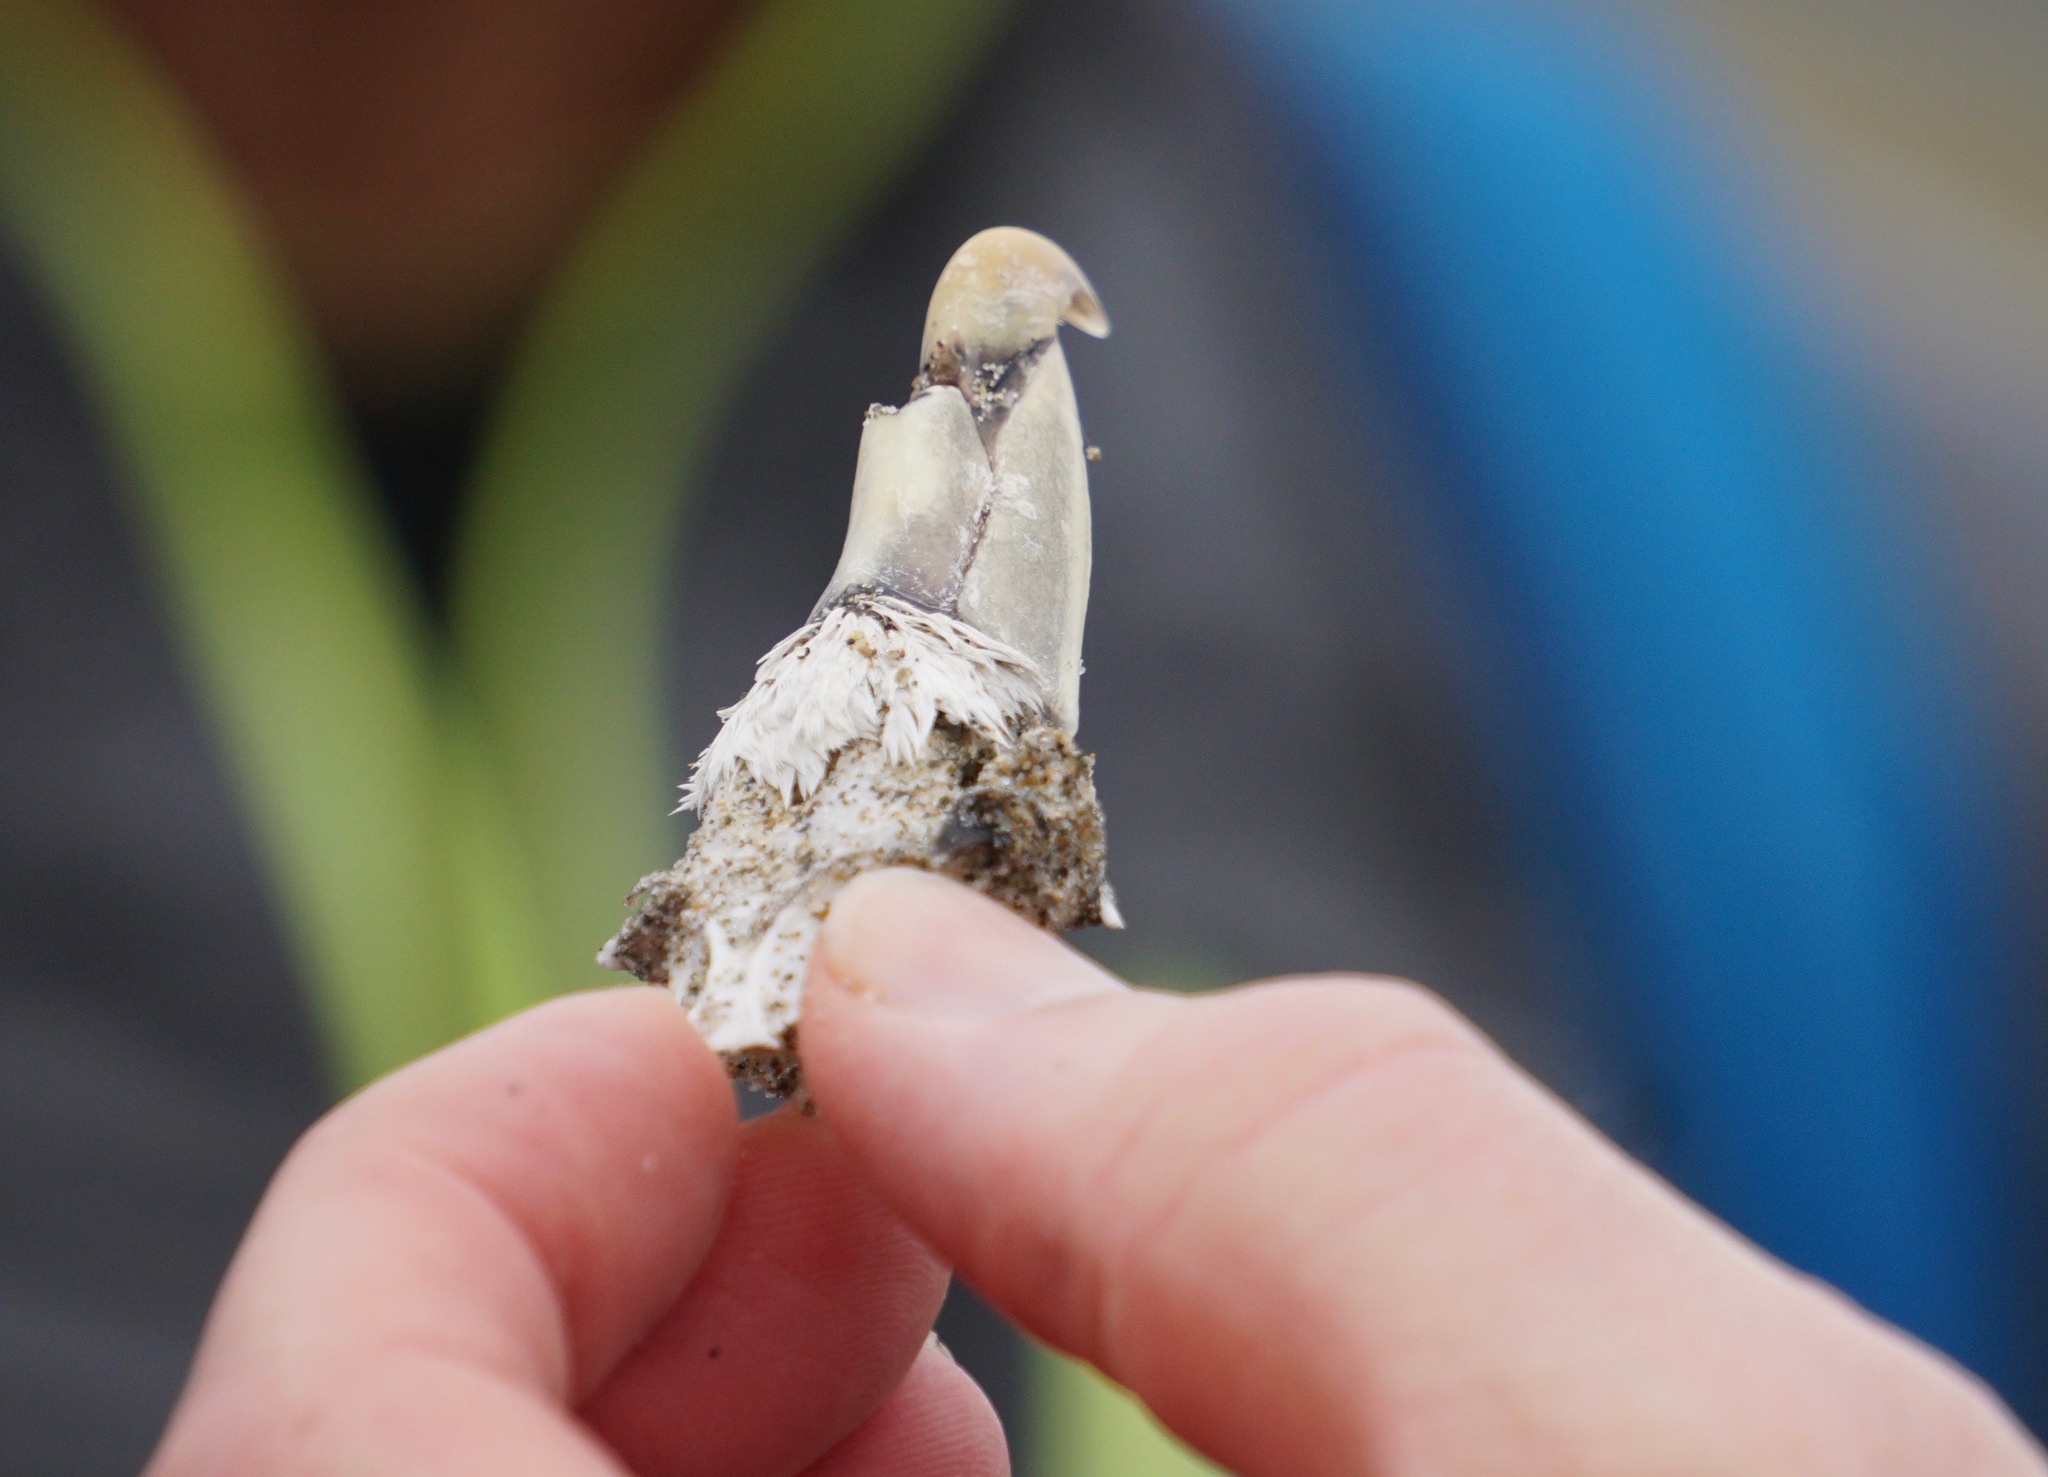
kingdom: Animalia
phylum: Chordata
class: Aves
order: Procellariiformes
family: Procellariidae
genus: Fulmarus
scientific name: Fulmarus glacialis
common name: Northern fulmar
